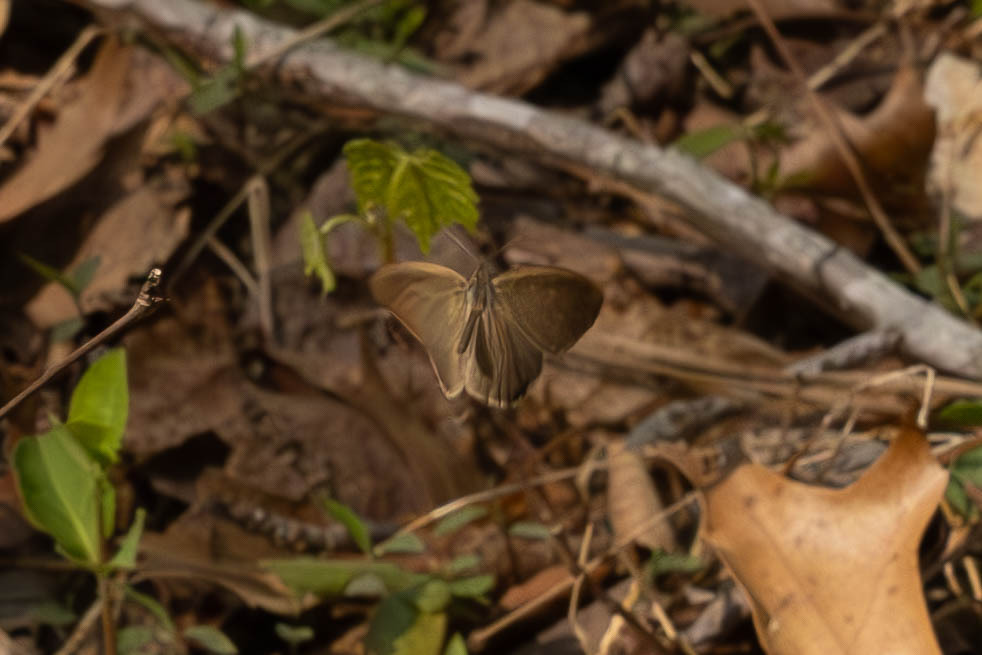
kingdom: Animalia
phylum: Arthropoda
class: Insecta
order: Lepidoptera
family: Nymphalidae
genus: Euptychia
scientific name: Euptychia cornelius
